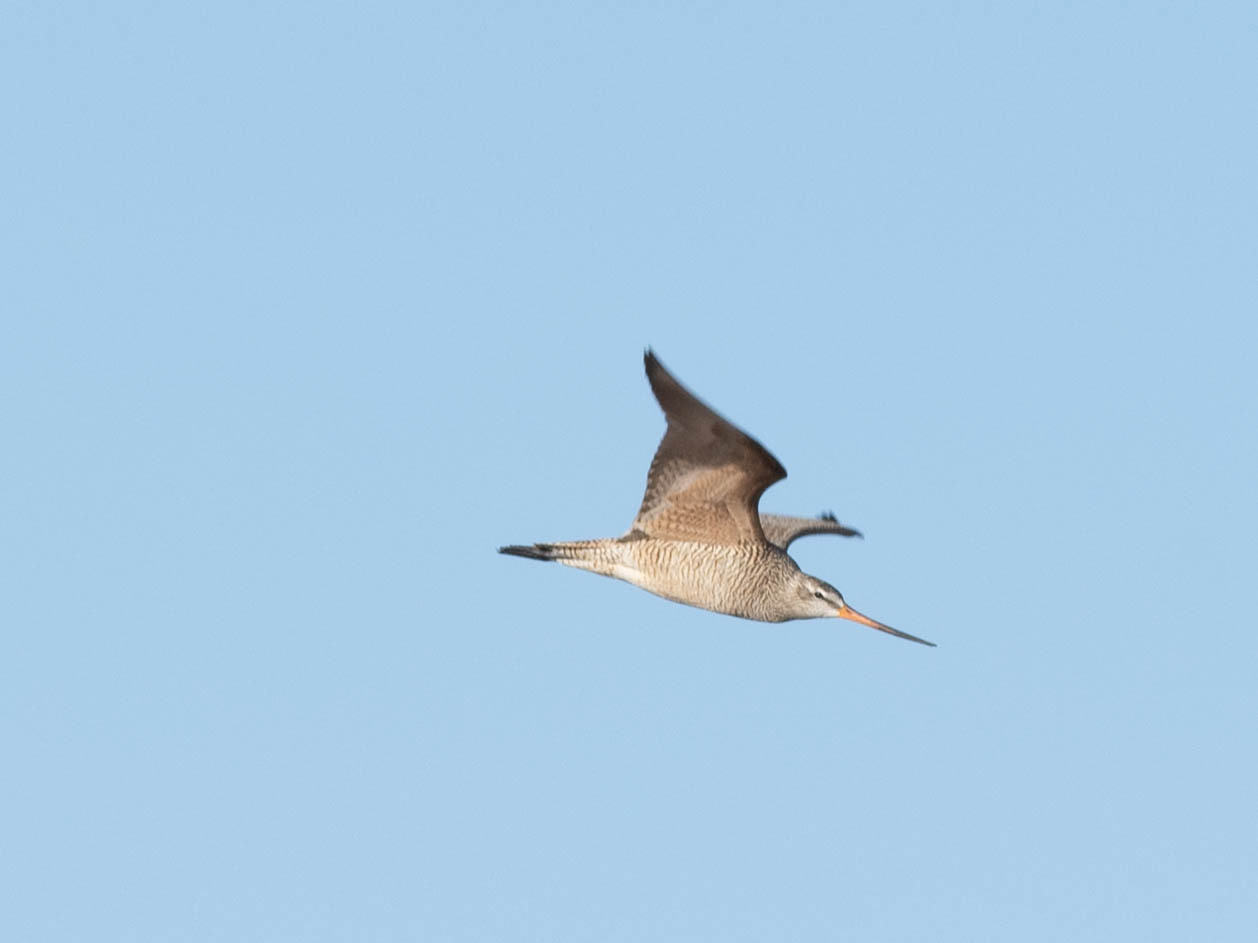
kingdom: Animalia
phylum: Chordata
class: Aves
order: Charadriiformes
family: Scolopacidae
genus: Limosa
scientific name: Limosa fedoa
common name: Marbled godwit
